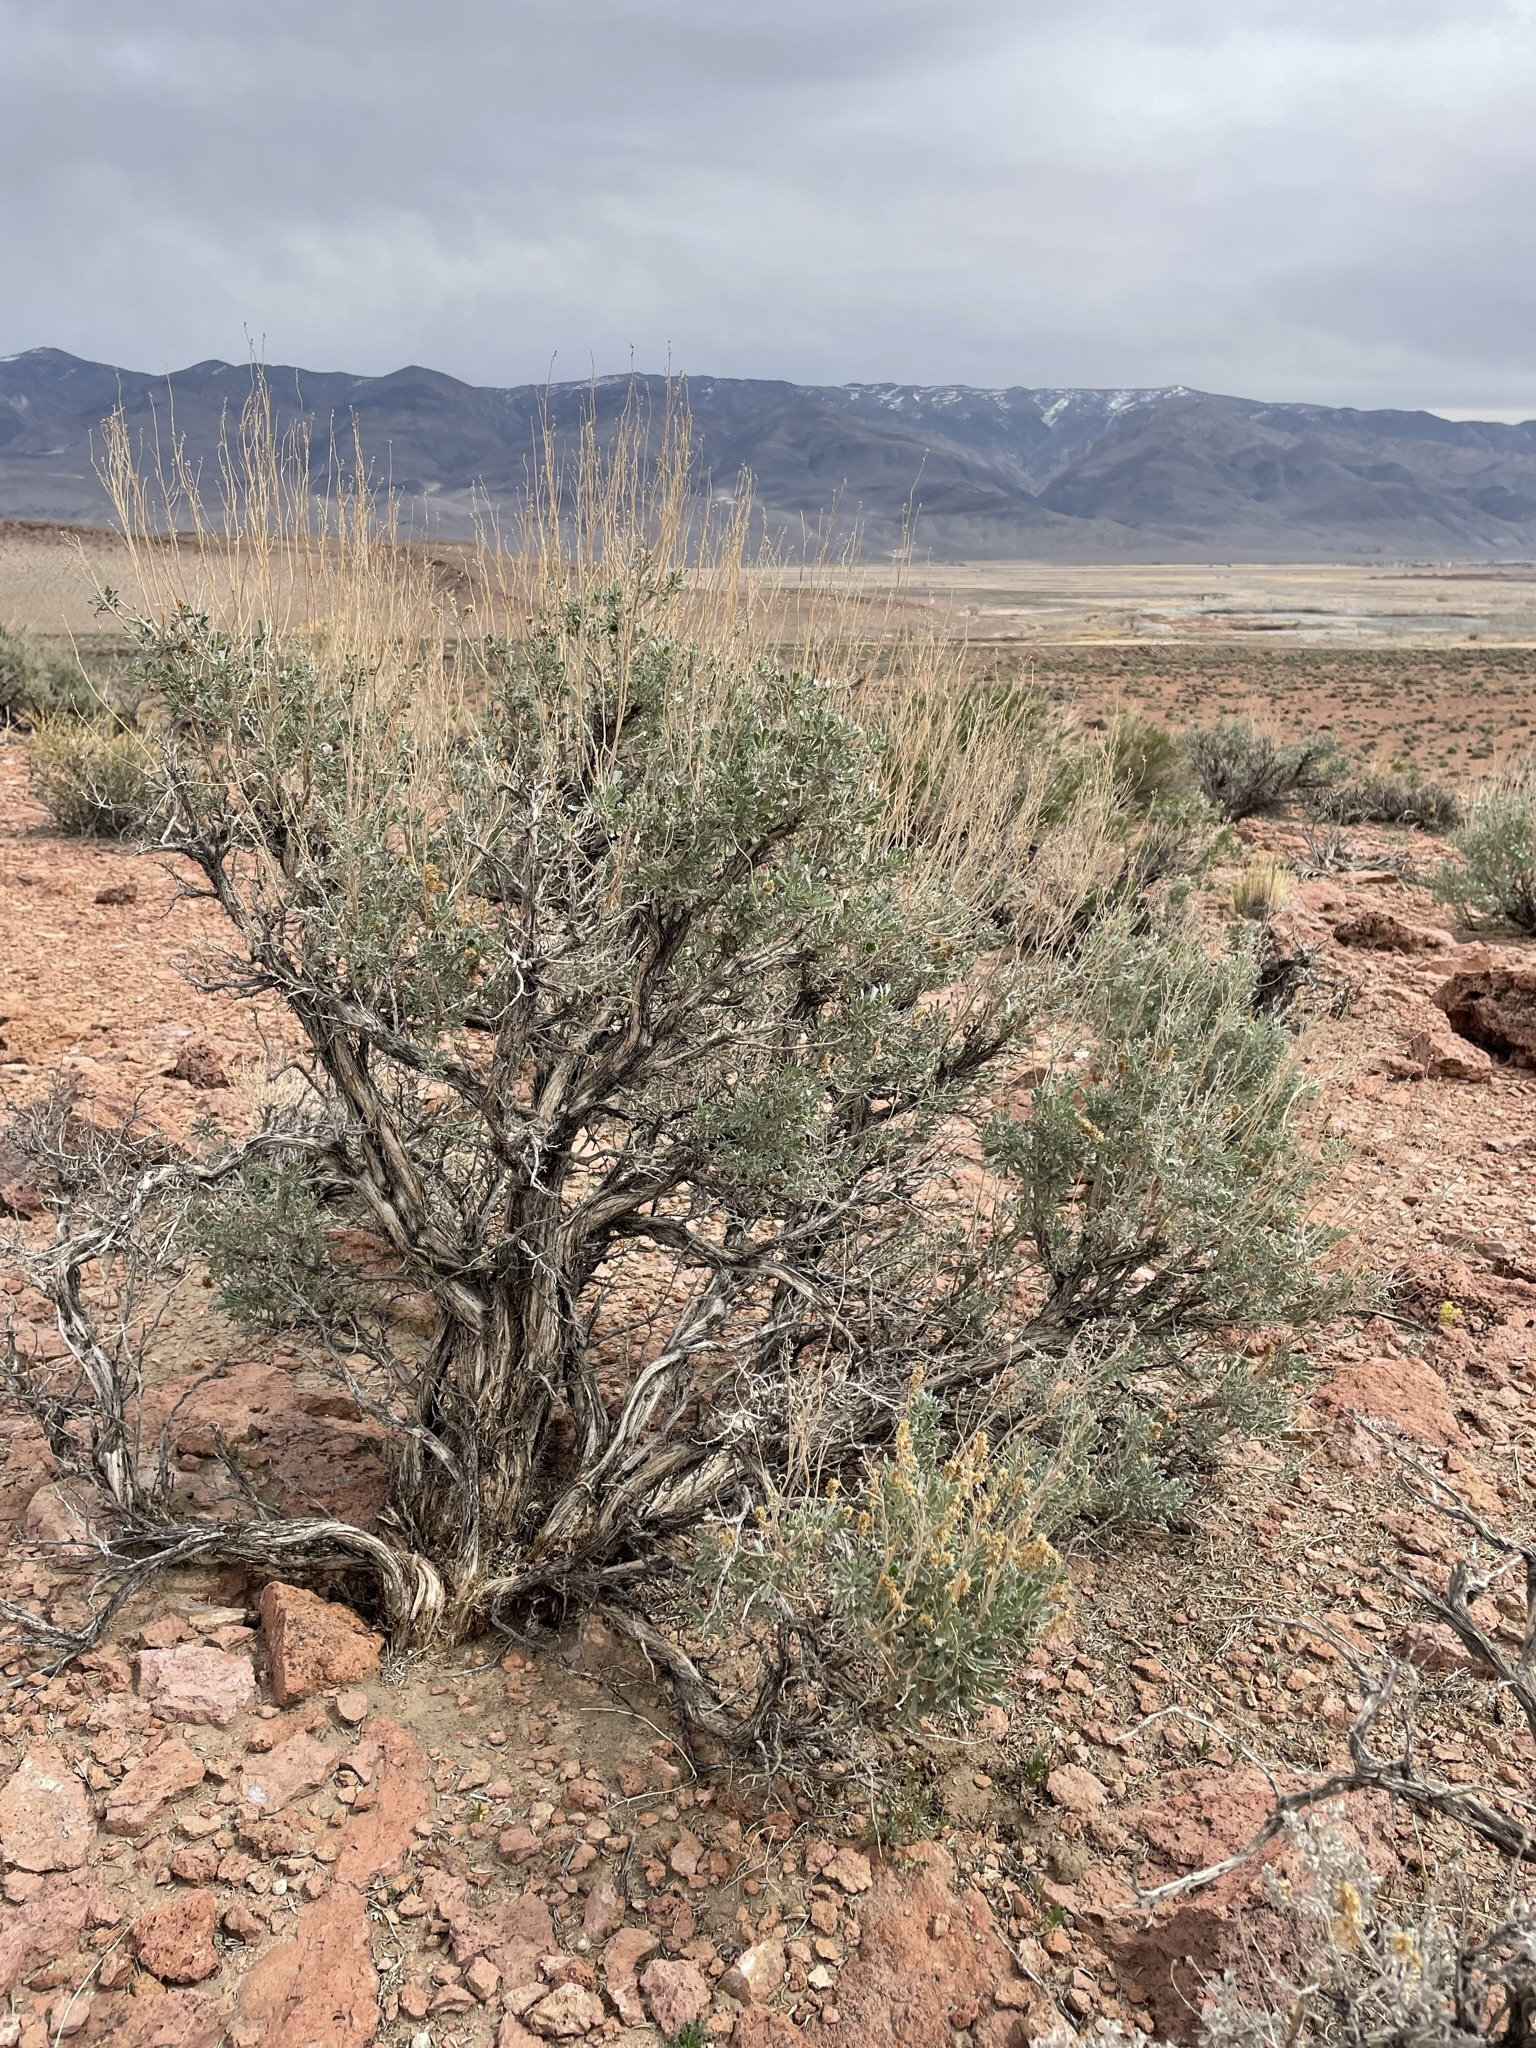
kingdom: Plantae
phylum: Tracheophyta
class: Magnoliopsida
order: Asterales
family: Asteraceae
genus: Artemisia
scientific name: Artemisia tridentata
